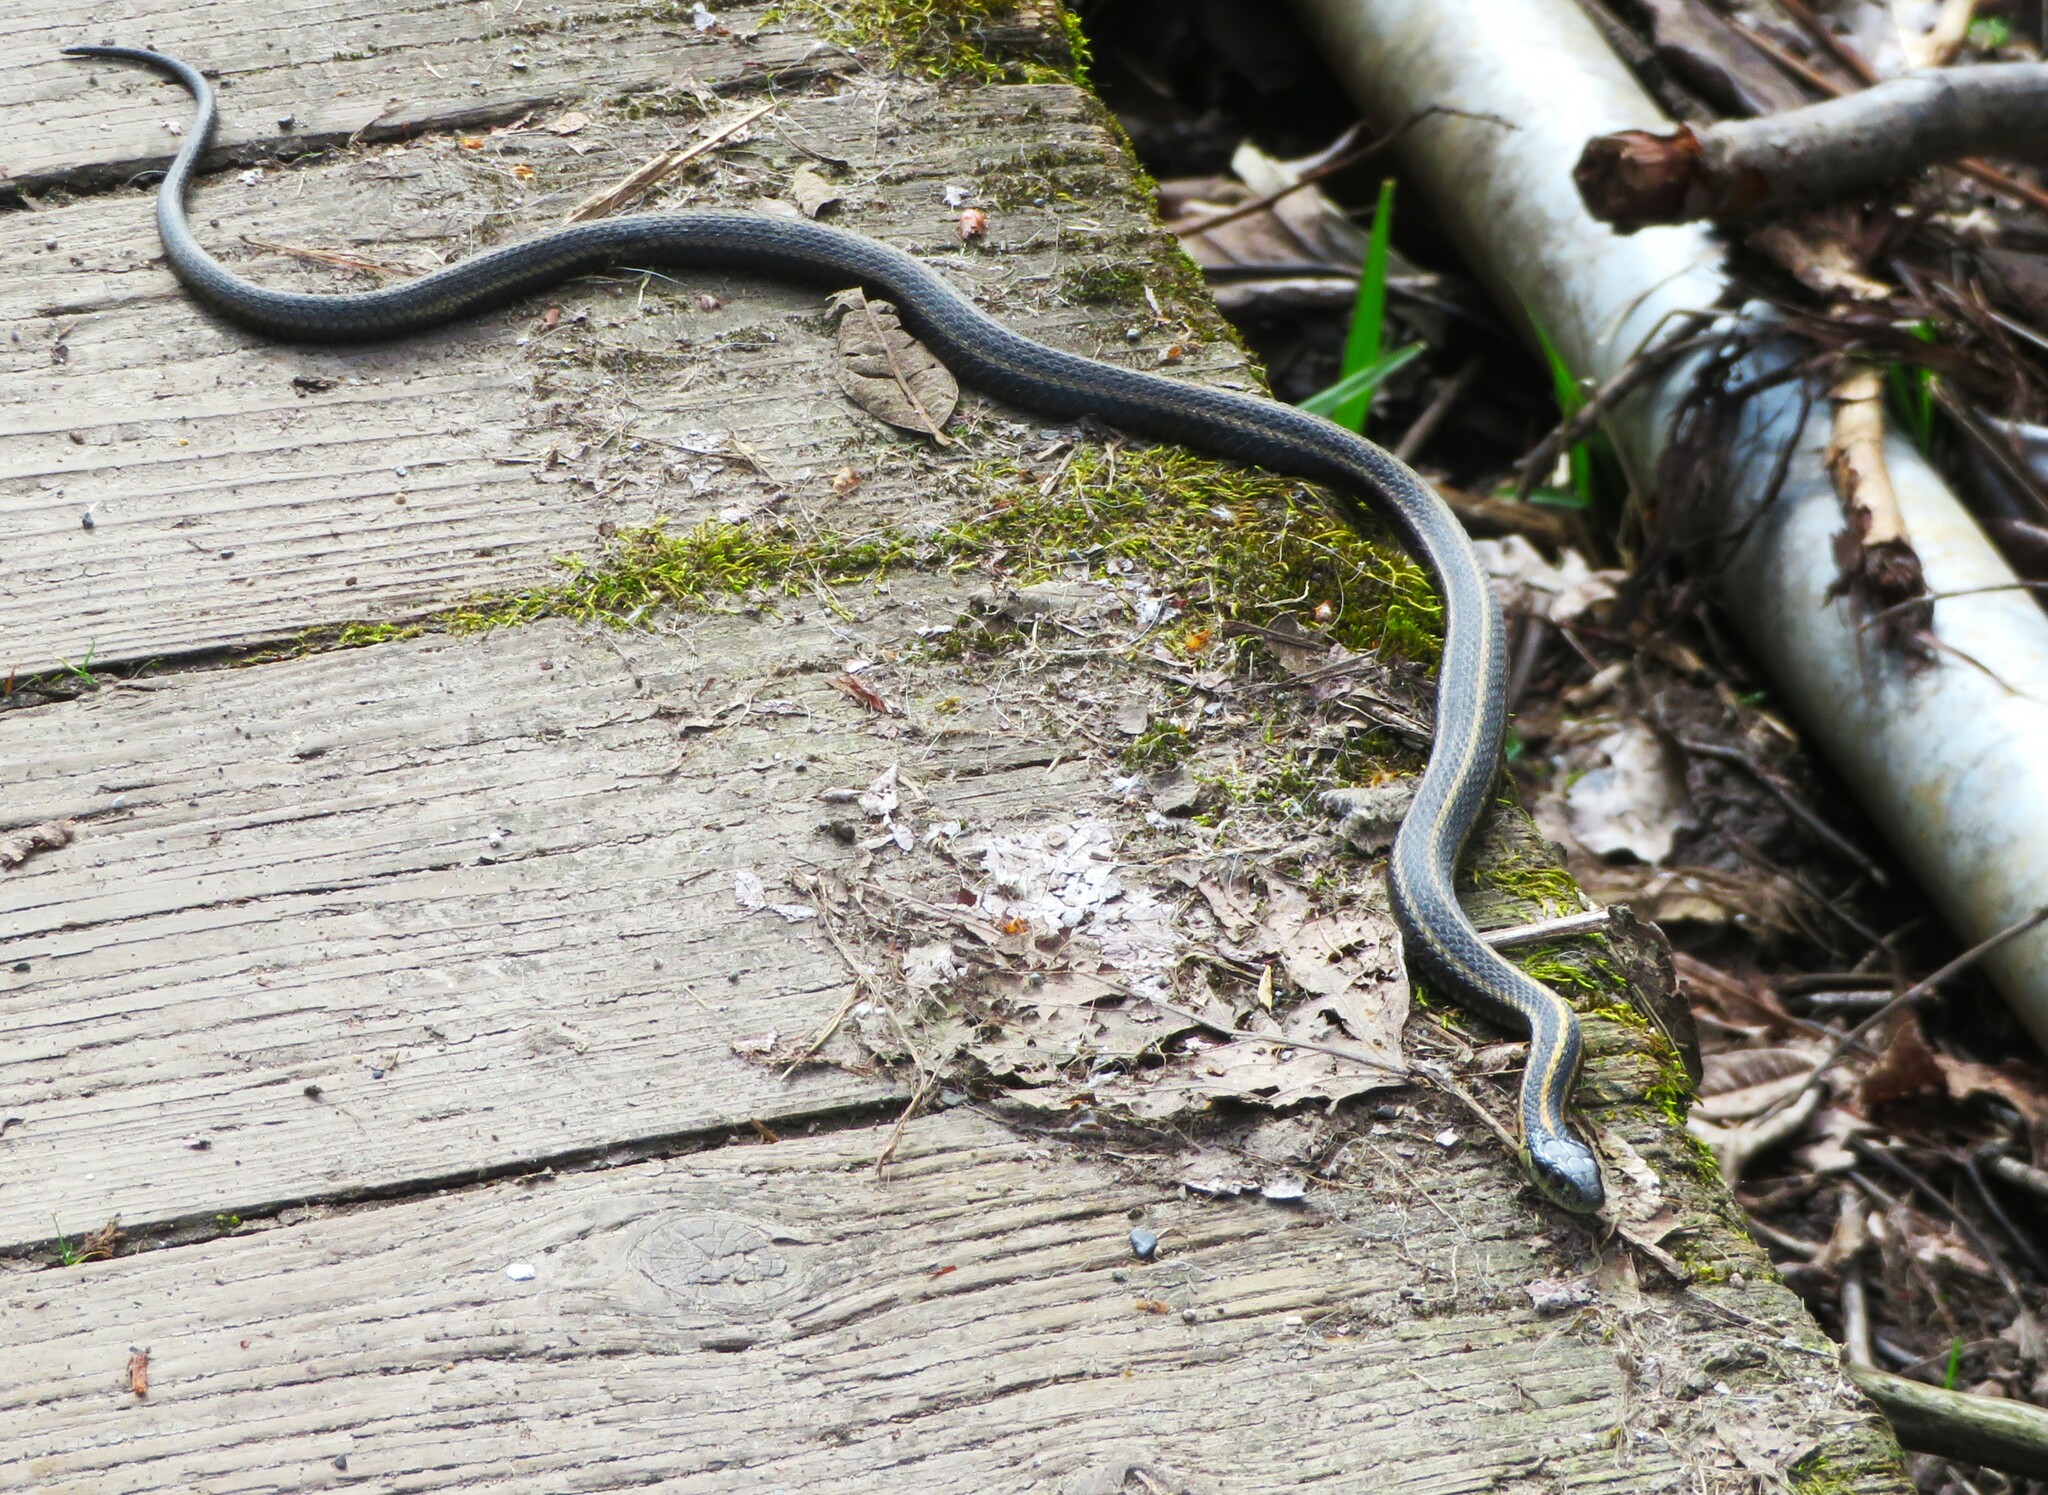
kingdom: Animalia
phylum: Chordata
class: Squamata
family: Colubridae
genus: Thamnophis
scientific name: Thamnophis ordinoides
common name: Northwestern garter snake
